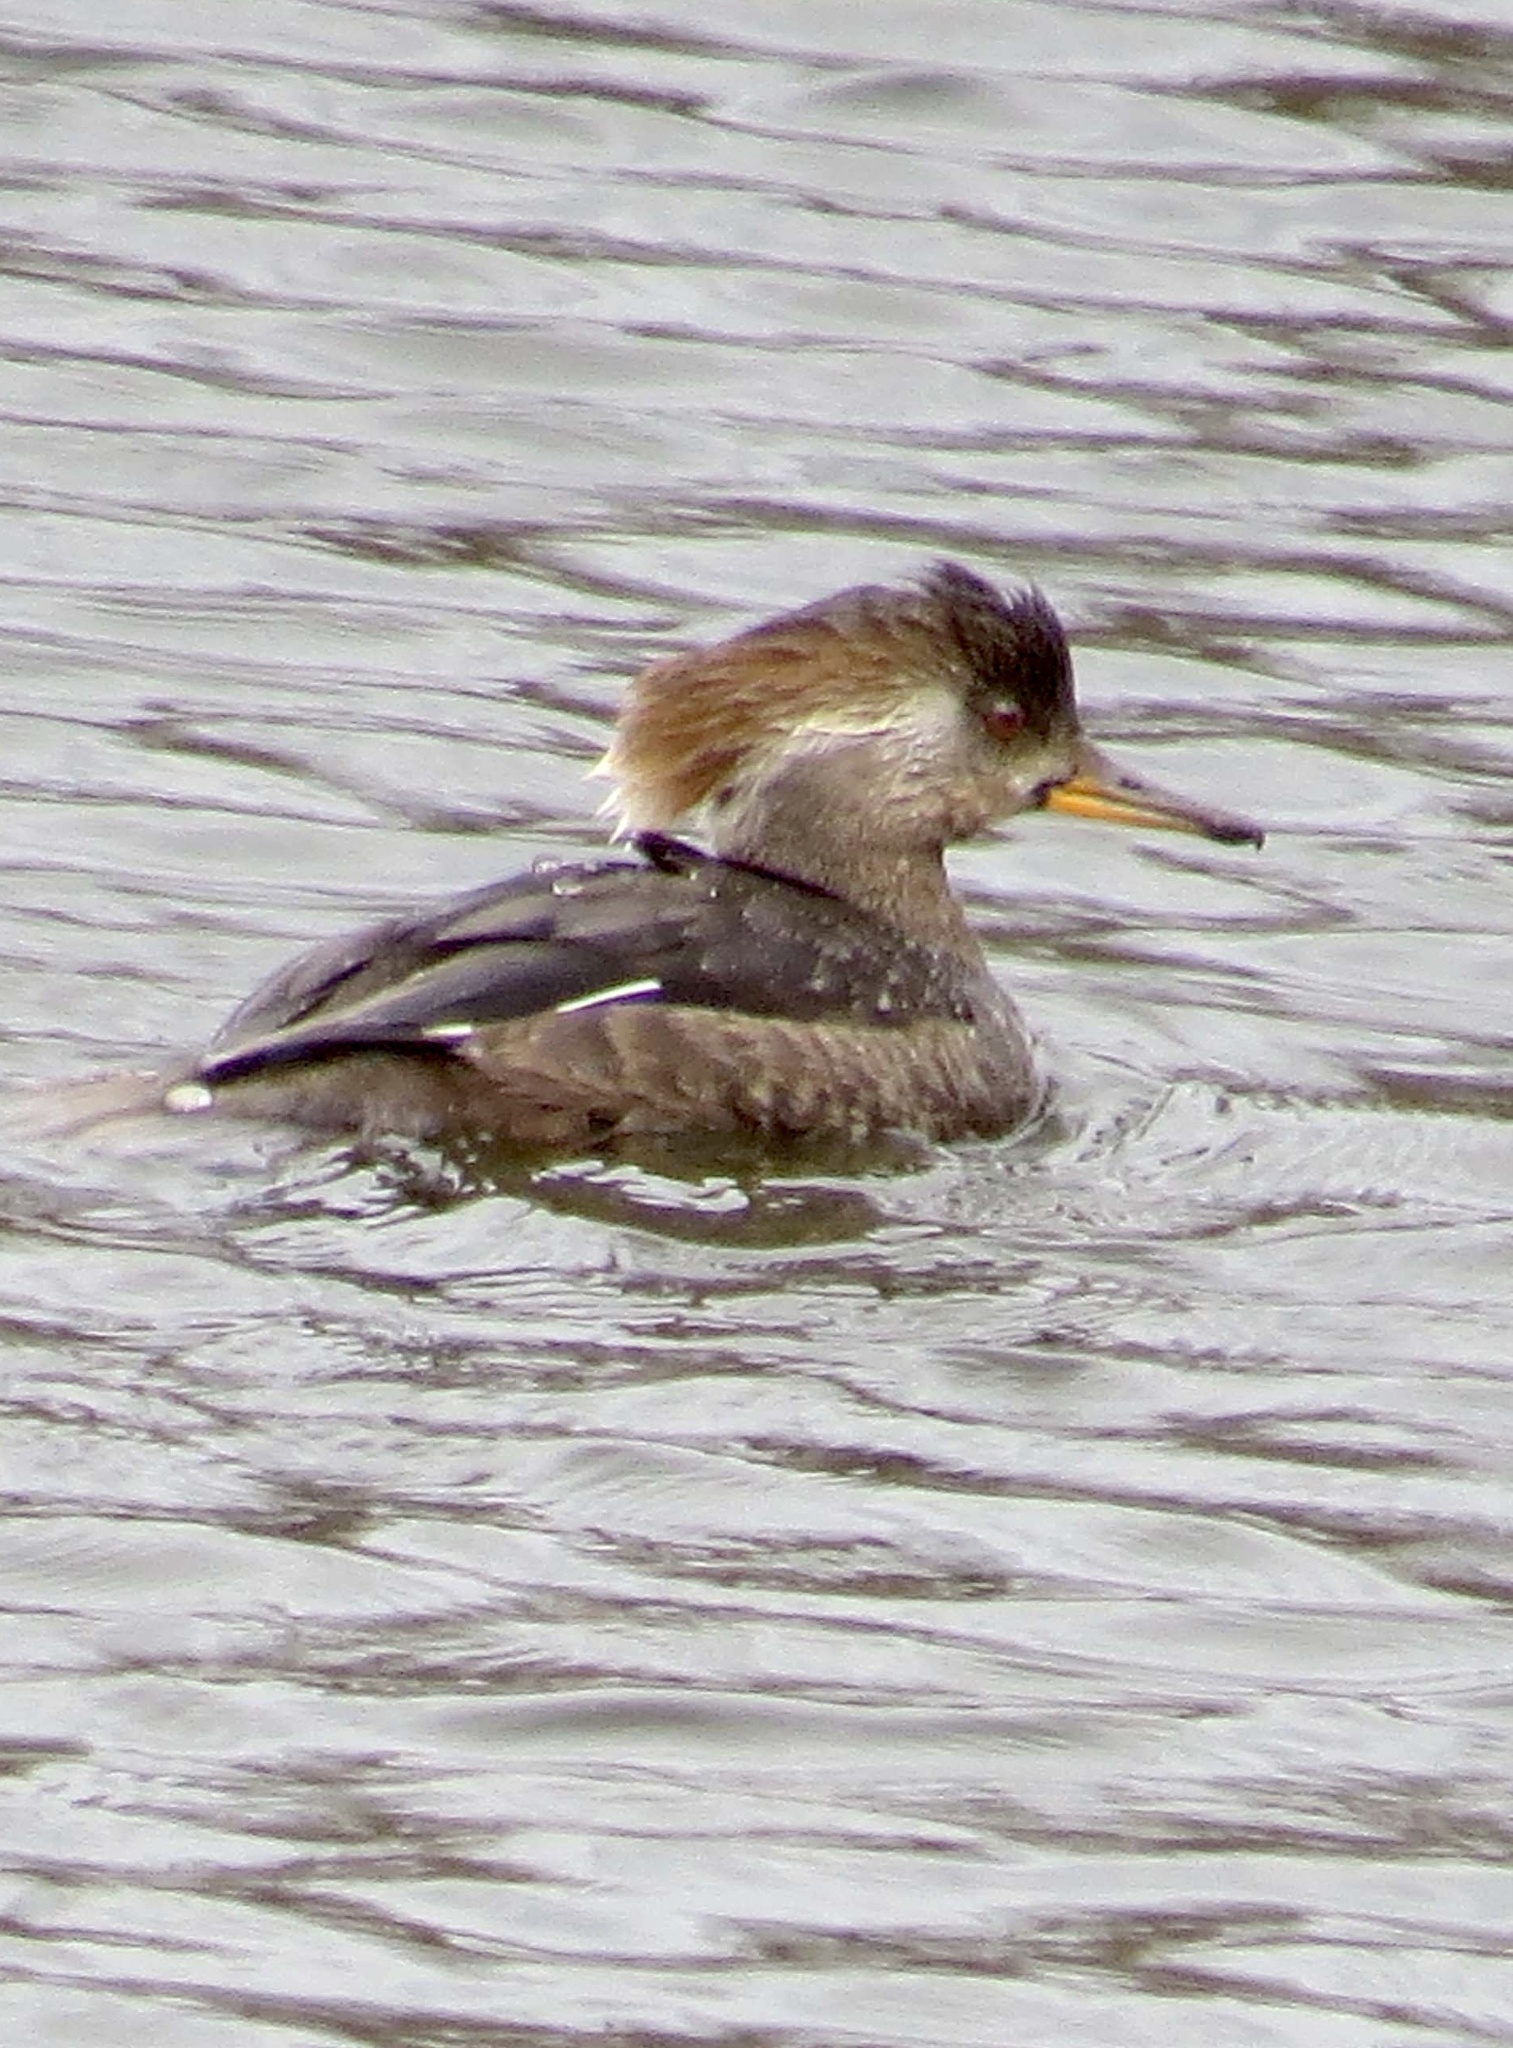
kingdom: Animalia
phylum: Chordata
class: Aves
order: Anseriformes
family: Anatidae
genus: Lophodytes
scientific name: Lophodytes cucullatus
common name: Hooded merganser
